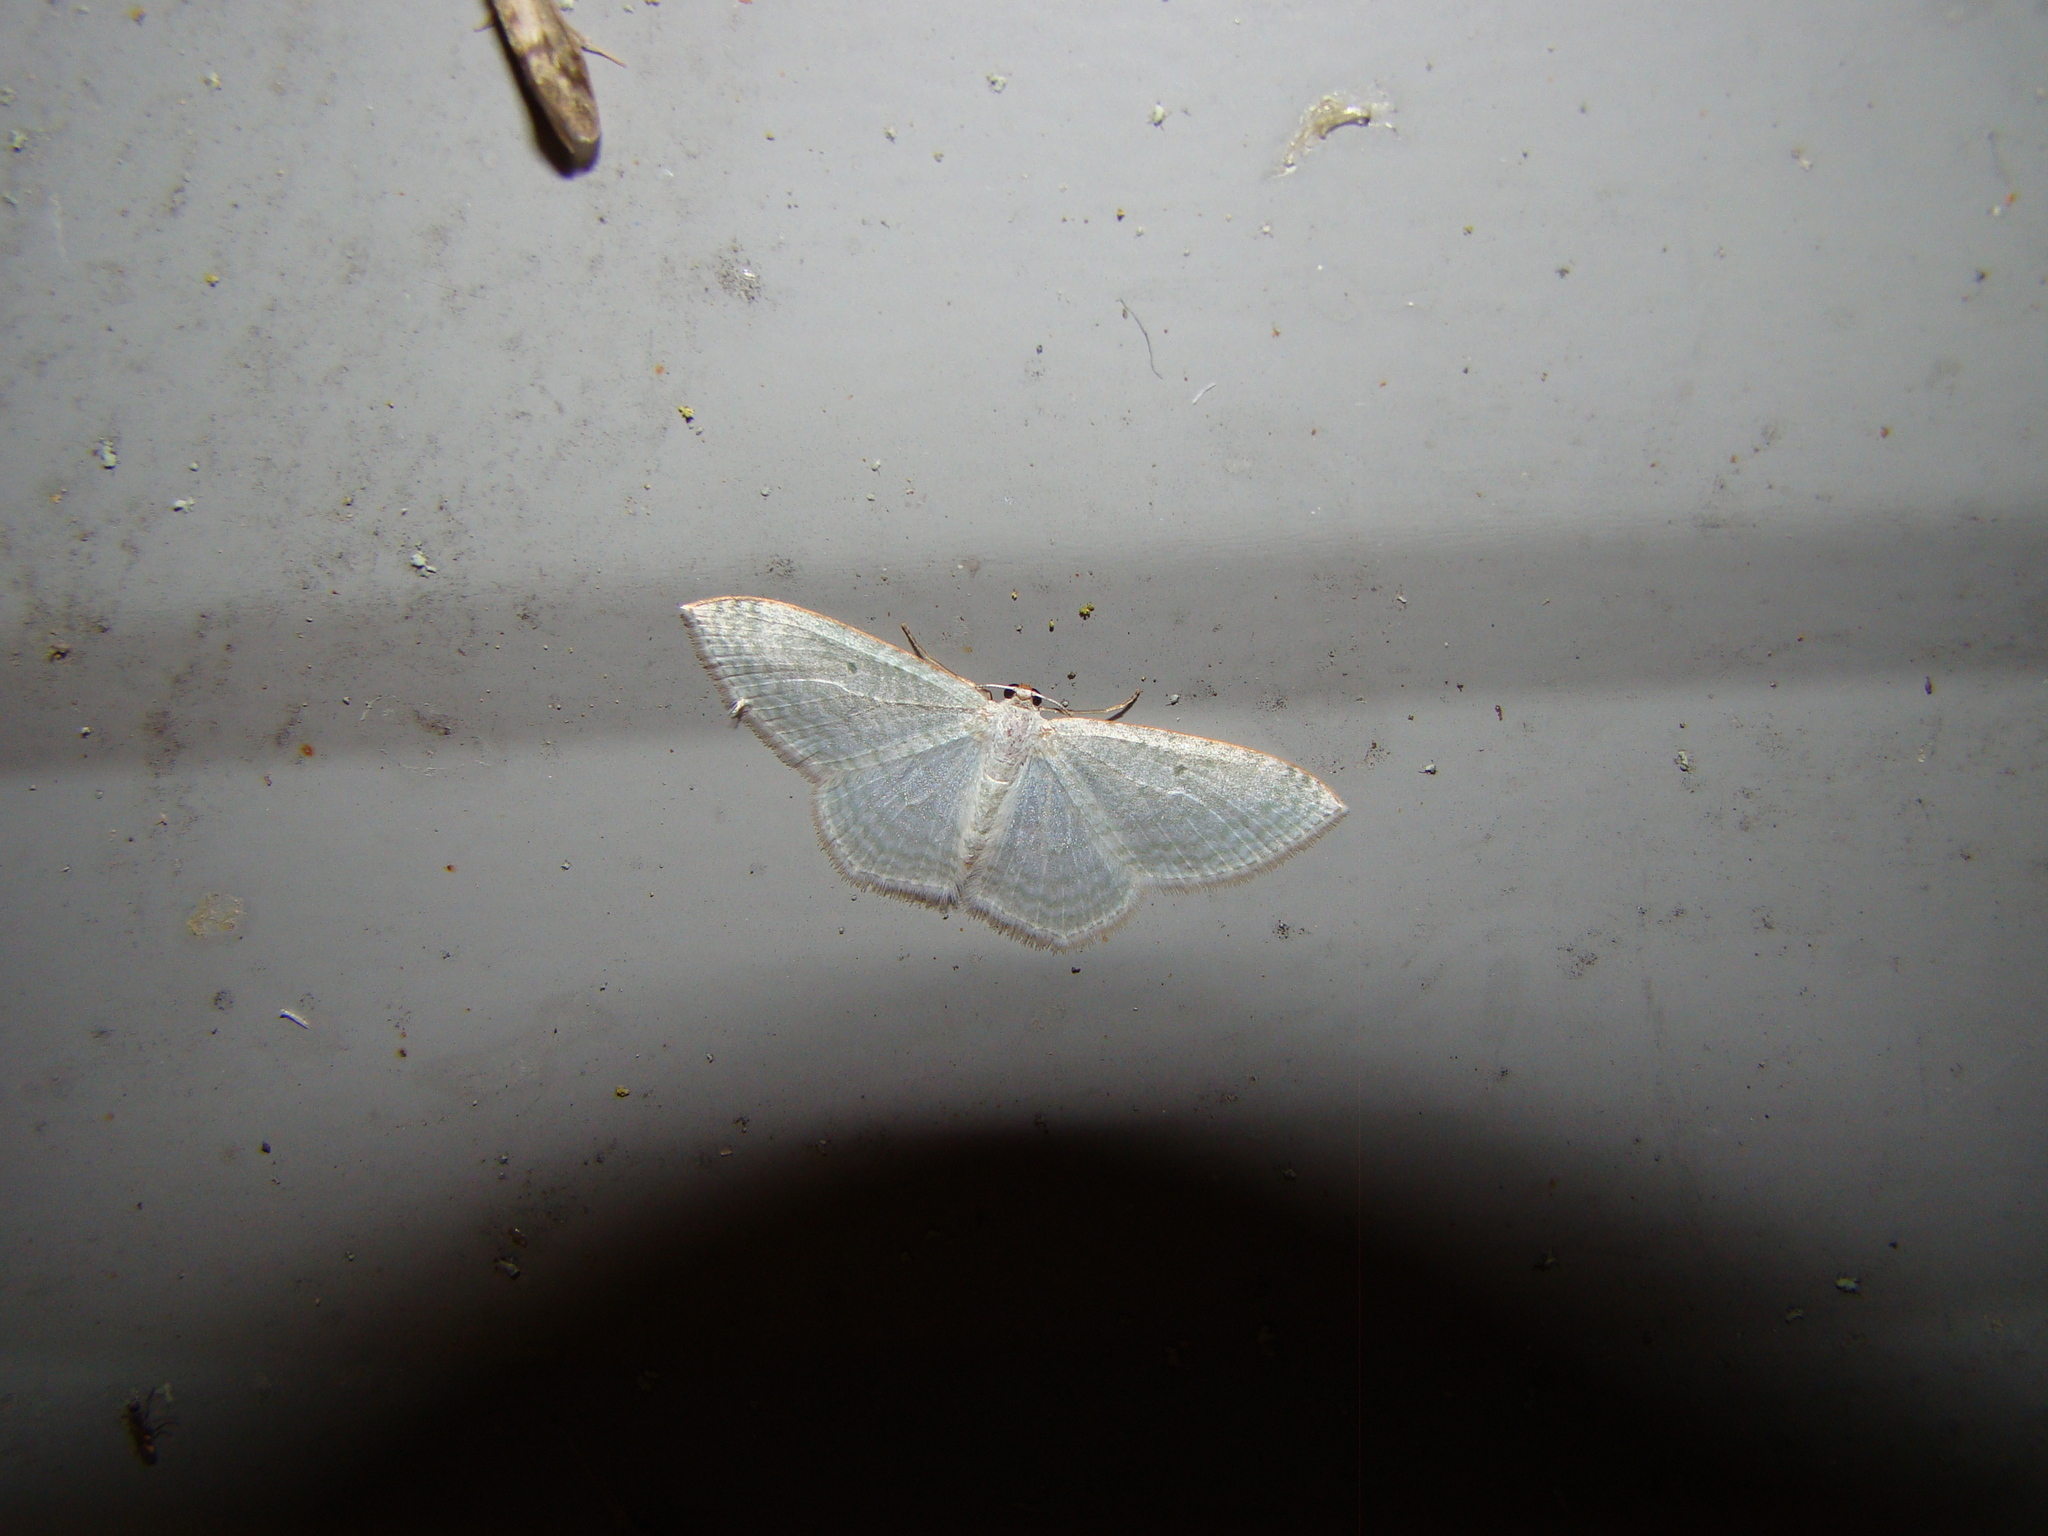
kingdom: Animalia
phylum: Arthropoda
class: Insecta
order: Lepidoptera
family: Geometridae
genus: Poecilasthena
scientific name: Poecilasthena pulchraria
